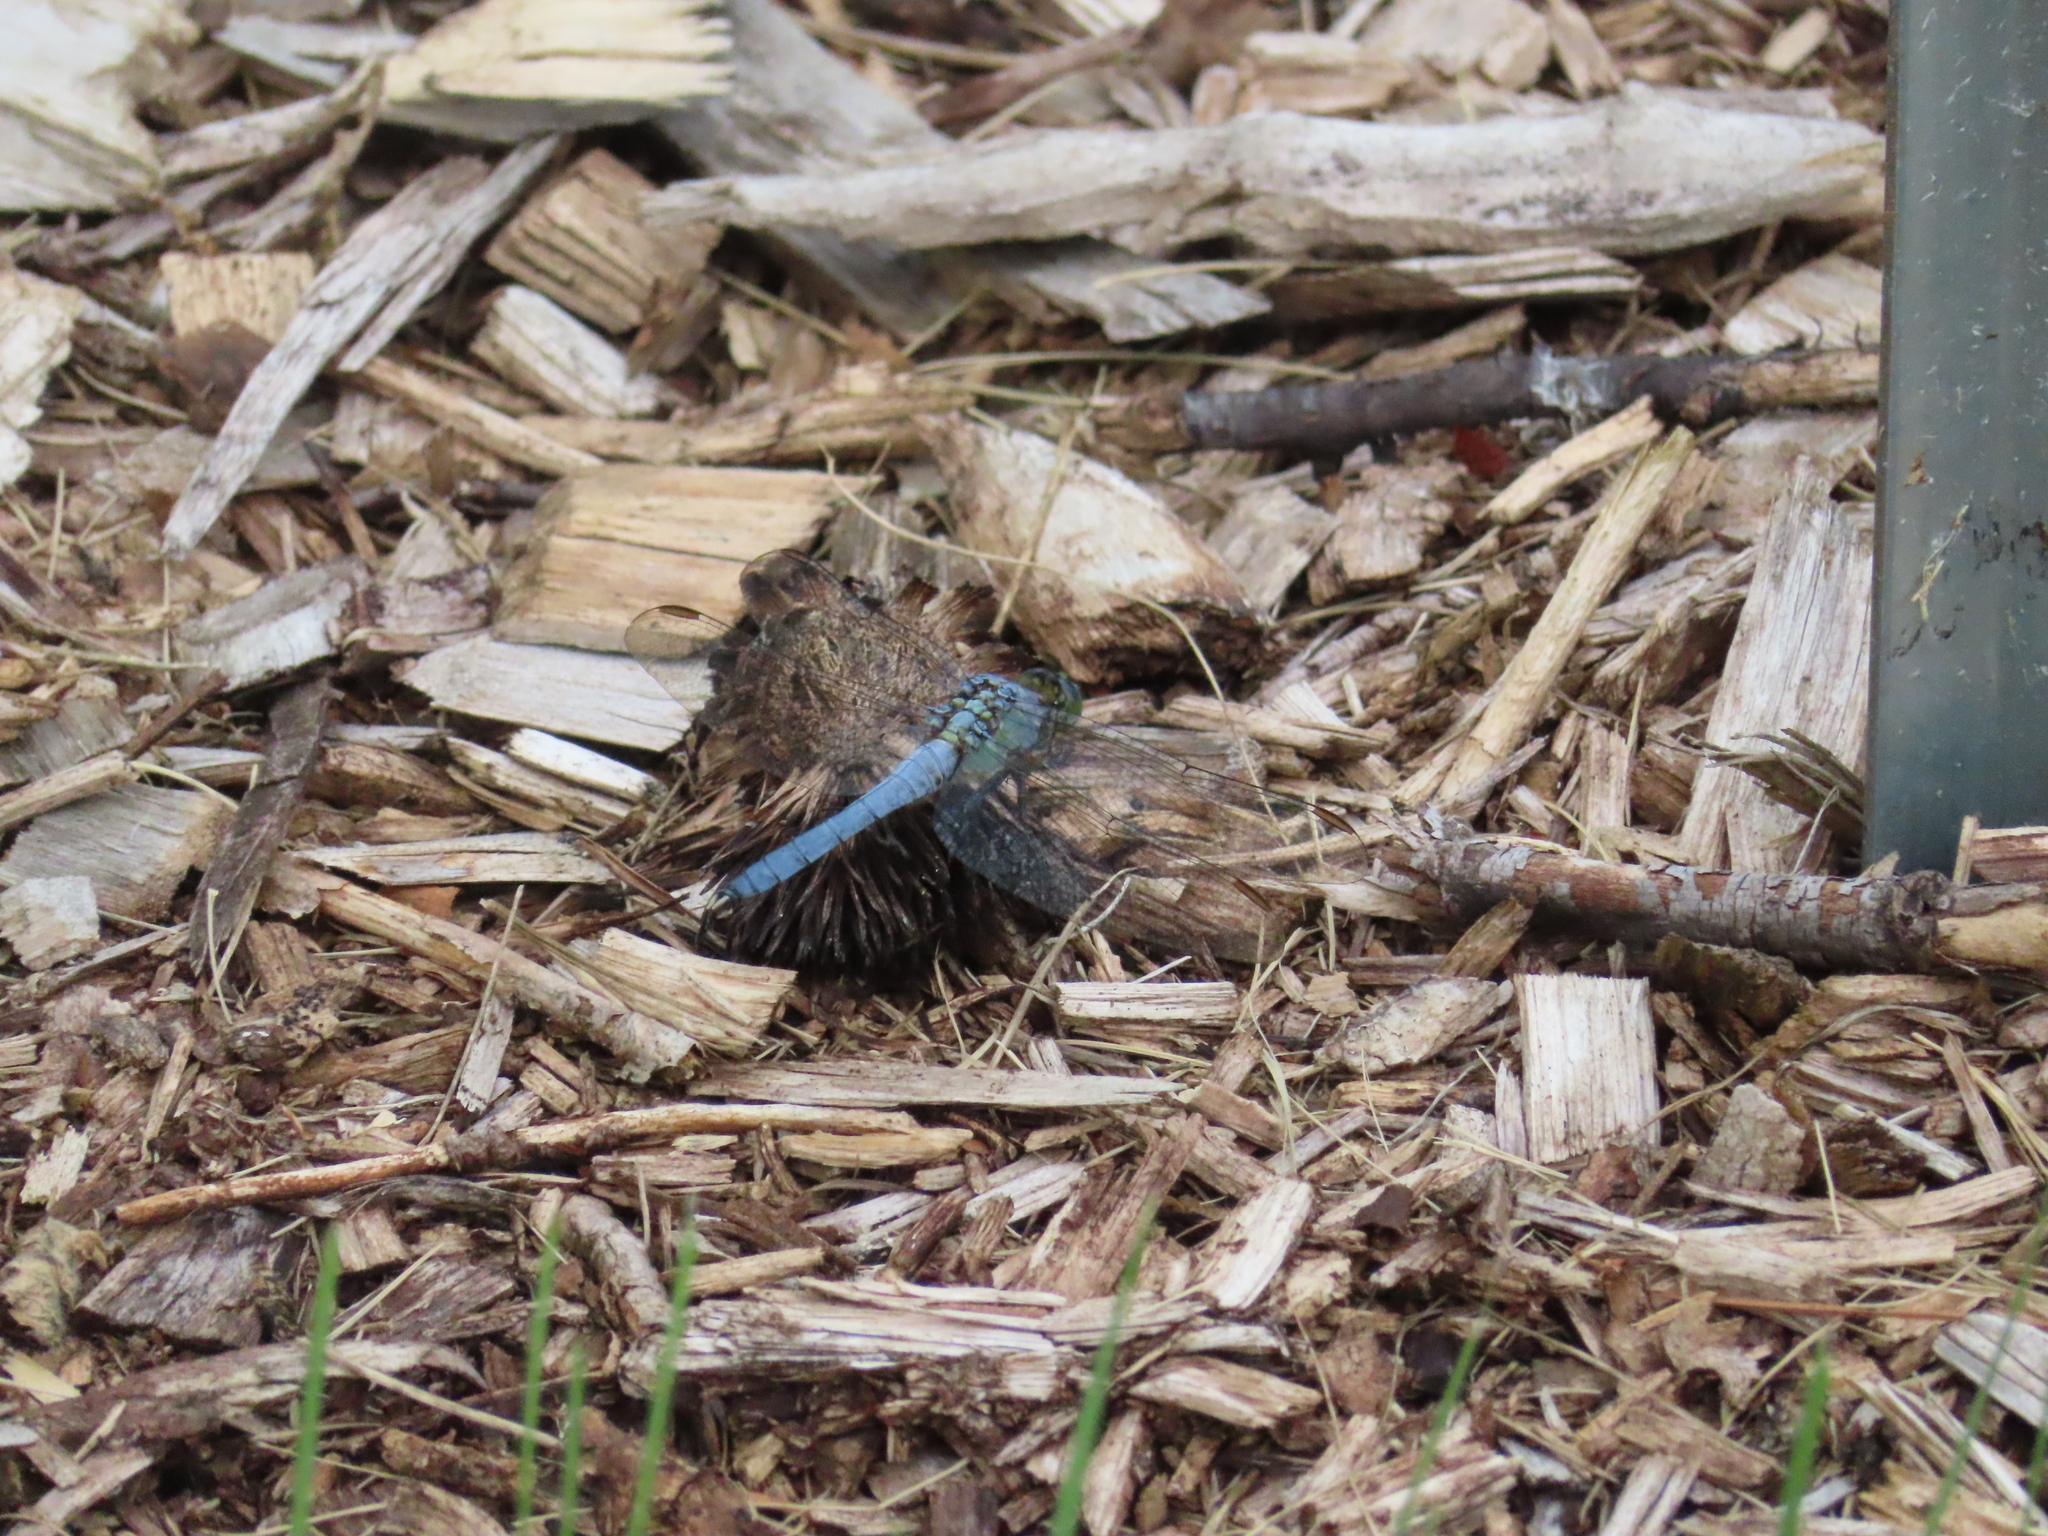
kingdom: Animalia
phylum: Arthropoda
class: Insecta
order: Odonata
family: Libellulidae
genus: Erythemis
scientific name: Erythemis simplicicollis
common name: Eastern pondhawk
